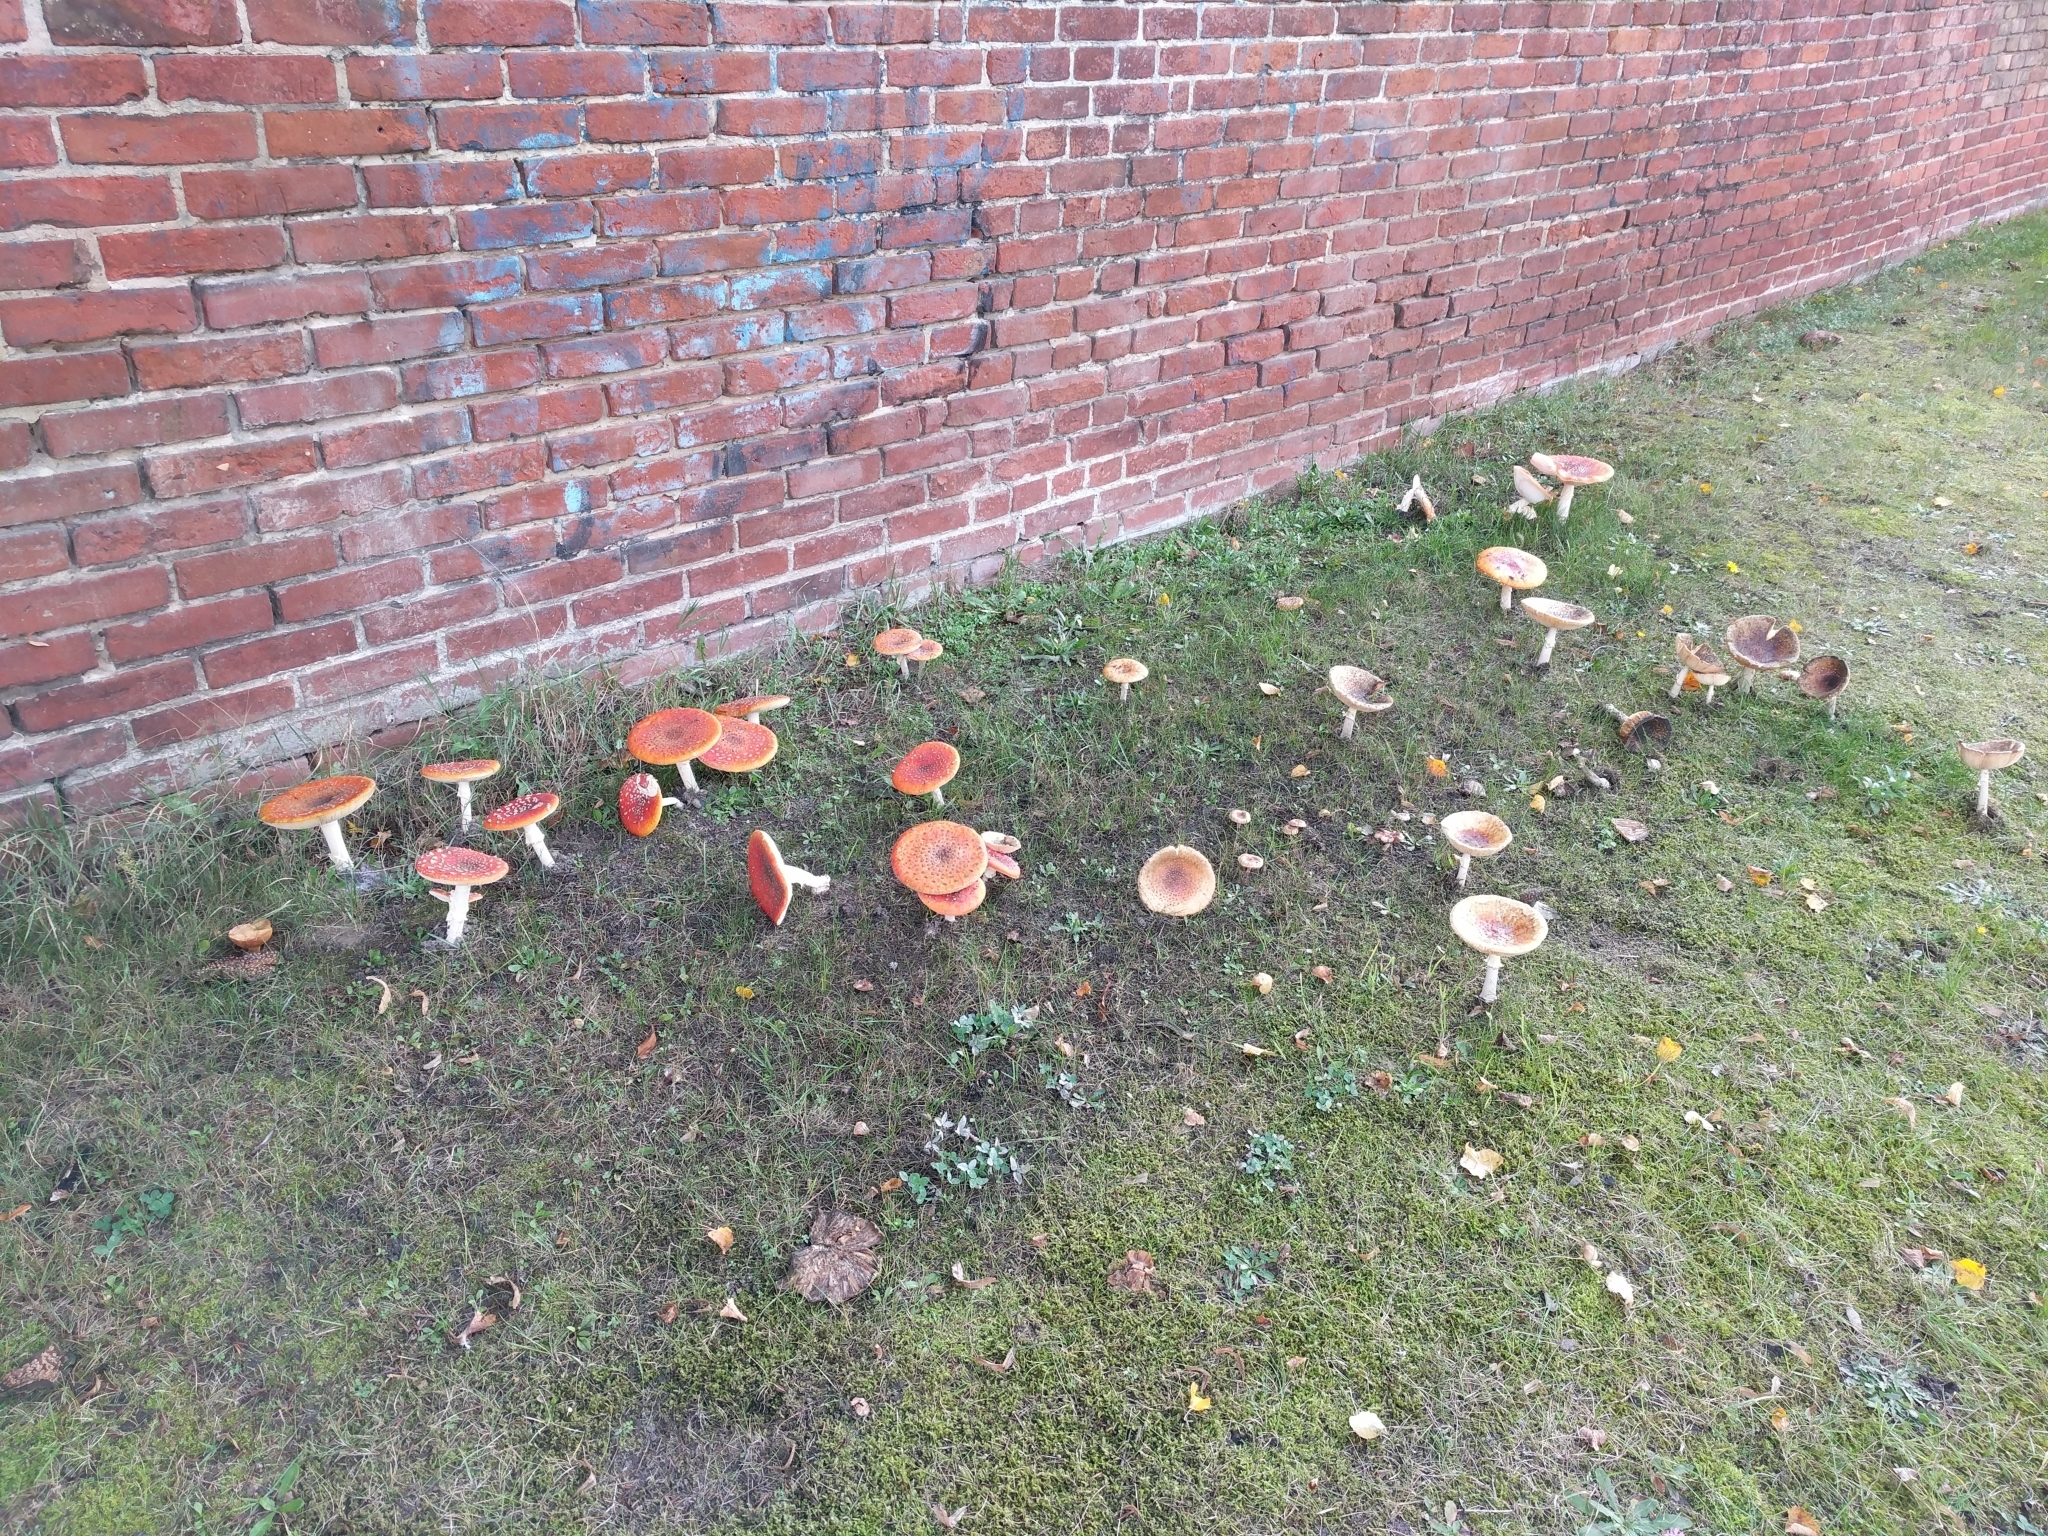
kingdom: Fungi
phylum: Basidiomycota
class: Agaricomycetes
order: Agaricales
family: Amanitaceae
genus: Amanita
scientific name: Amanita muscaria
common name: Fly agaric
